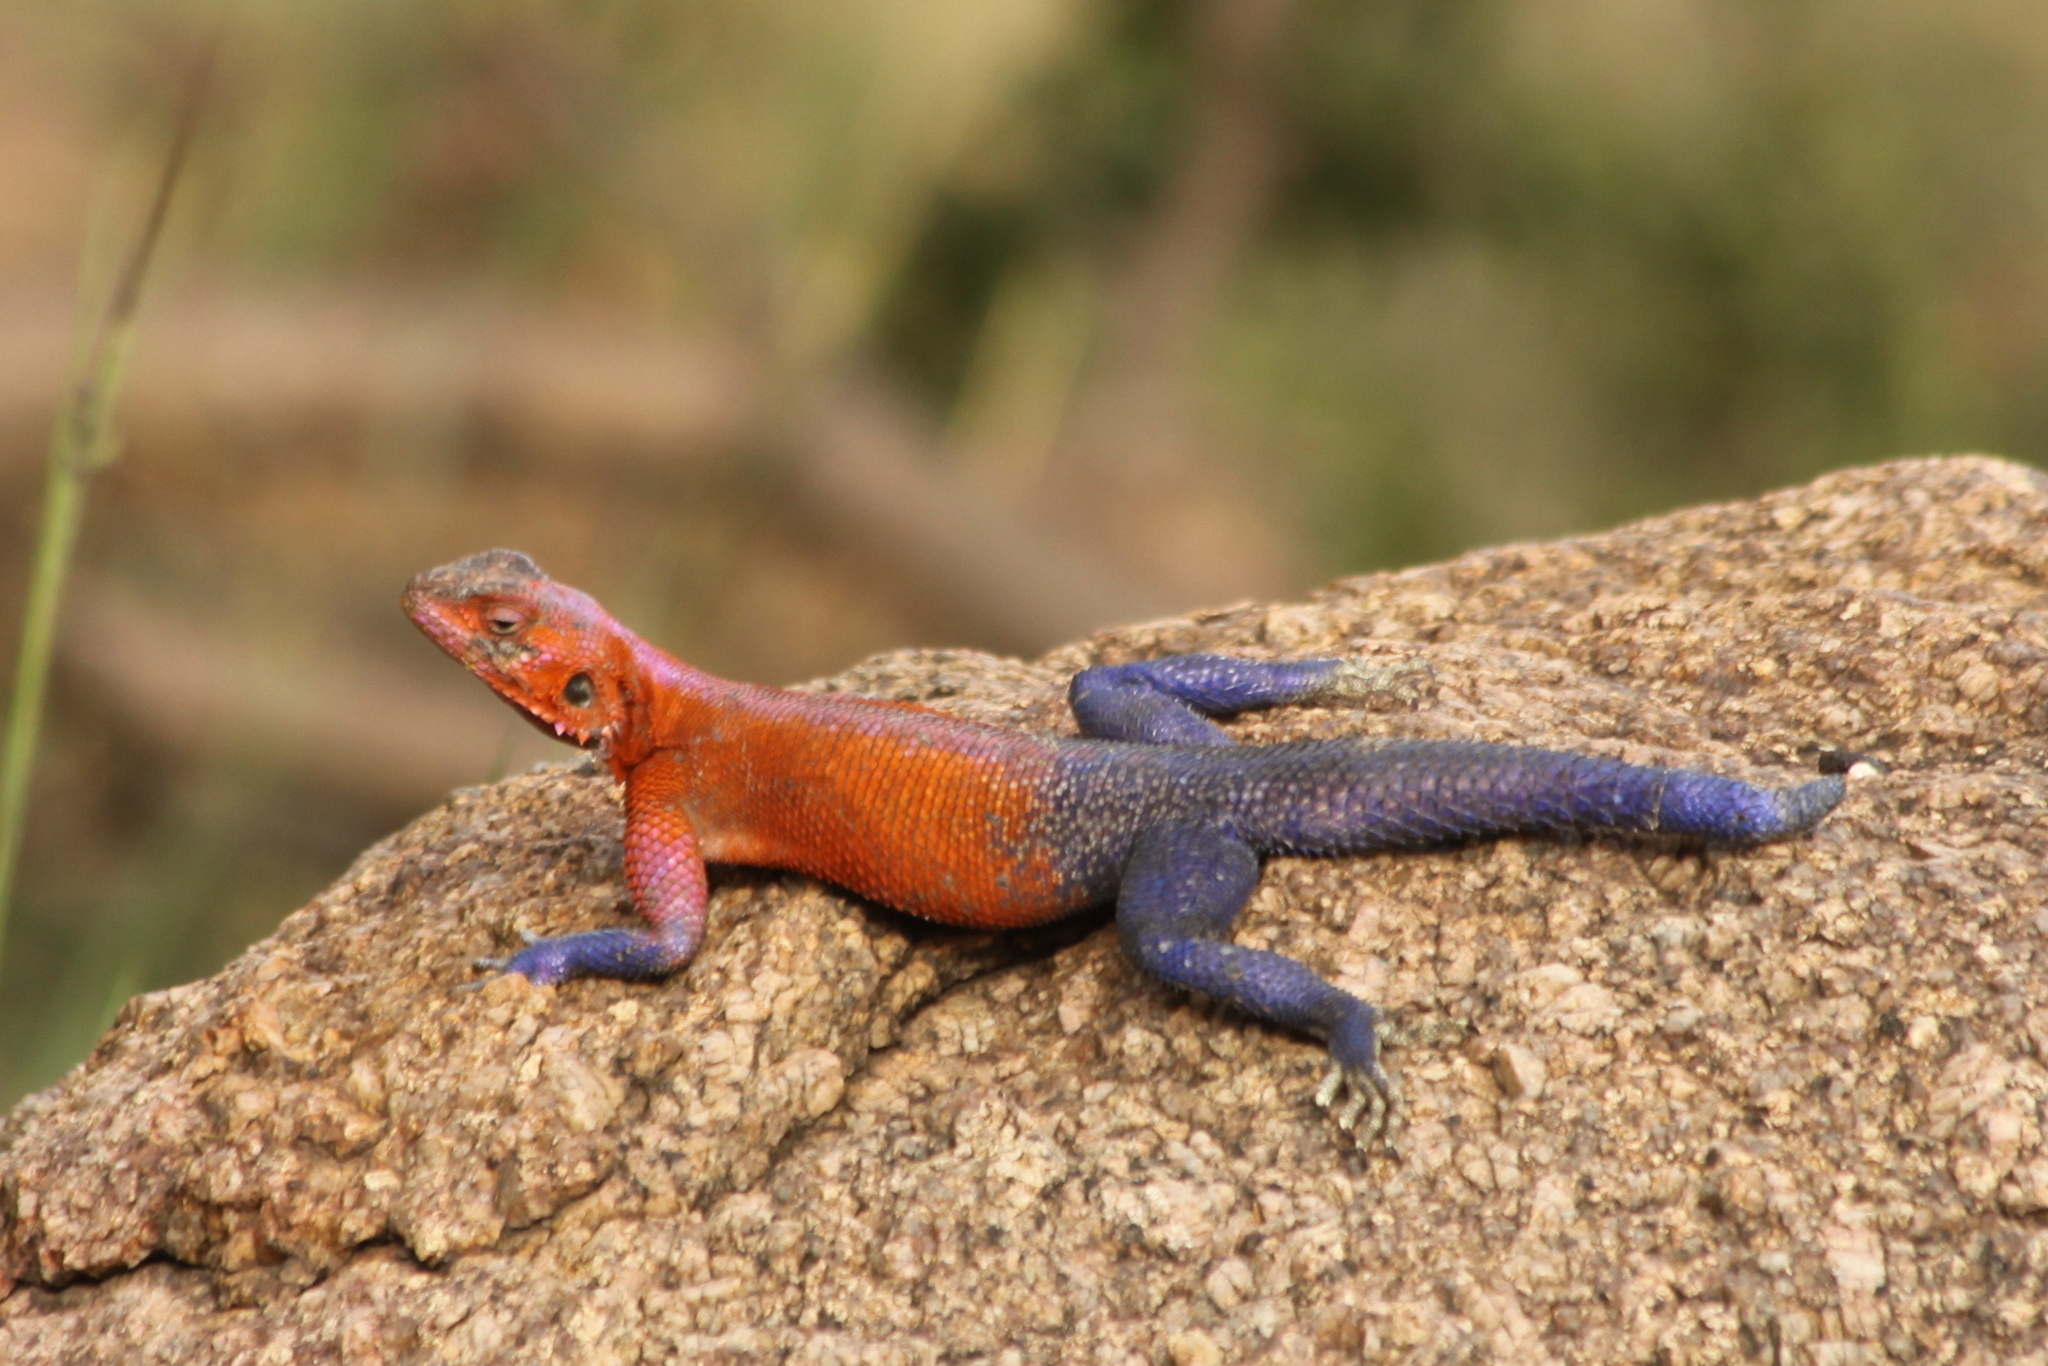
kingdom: Animalia
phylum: Chordata
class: Squamata
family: Agamidae
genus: Agama
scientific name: Agama mwanzae
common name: Mwanza flat-headed agama
